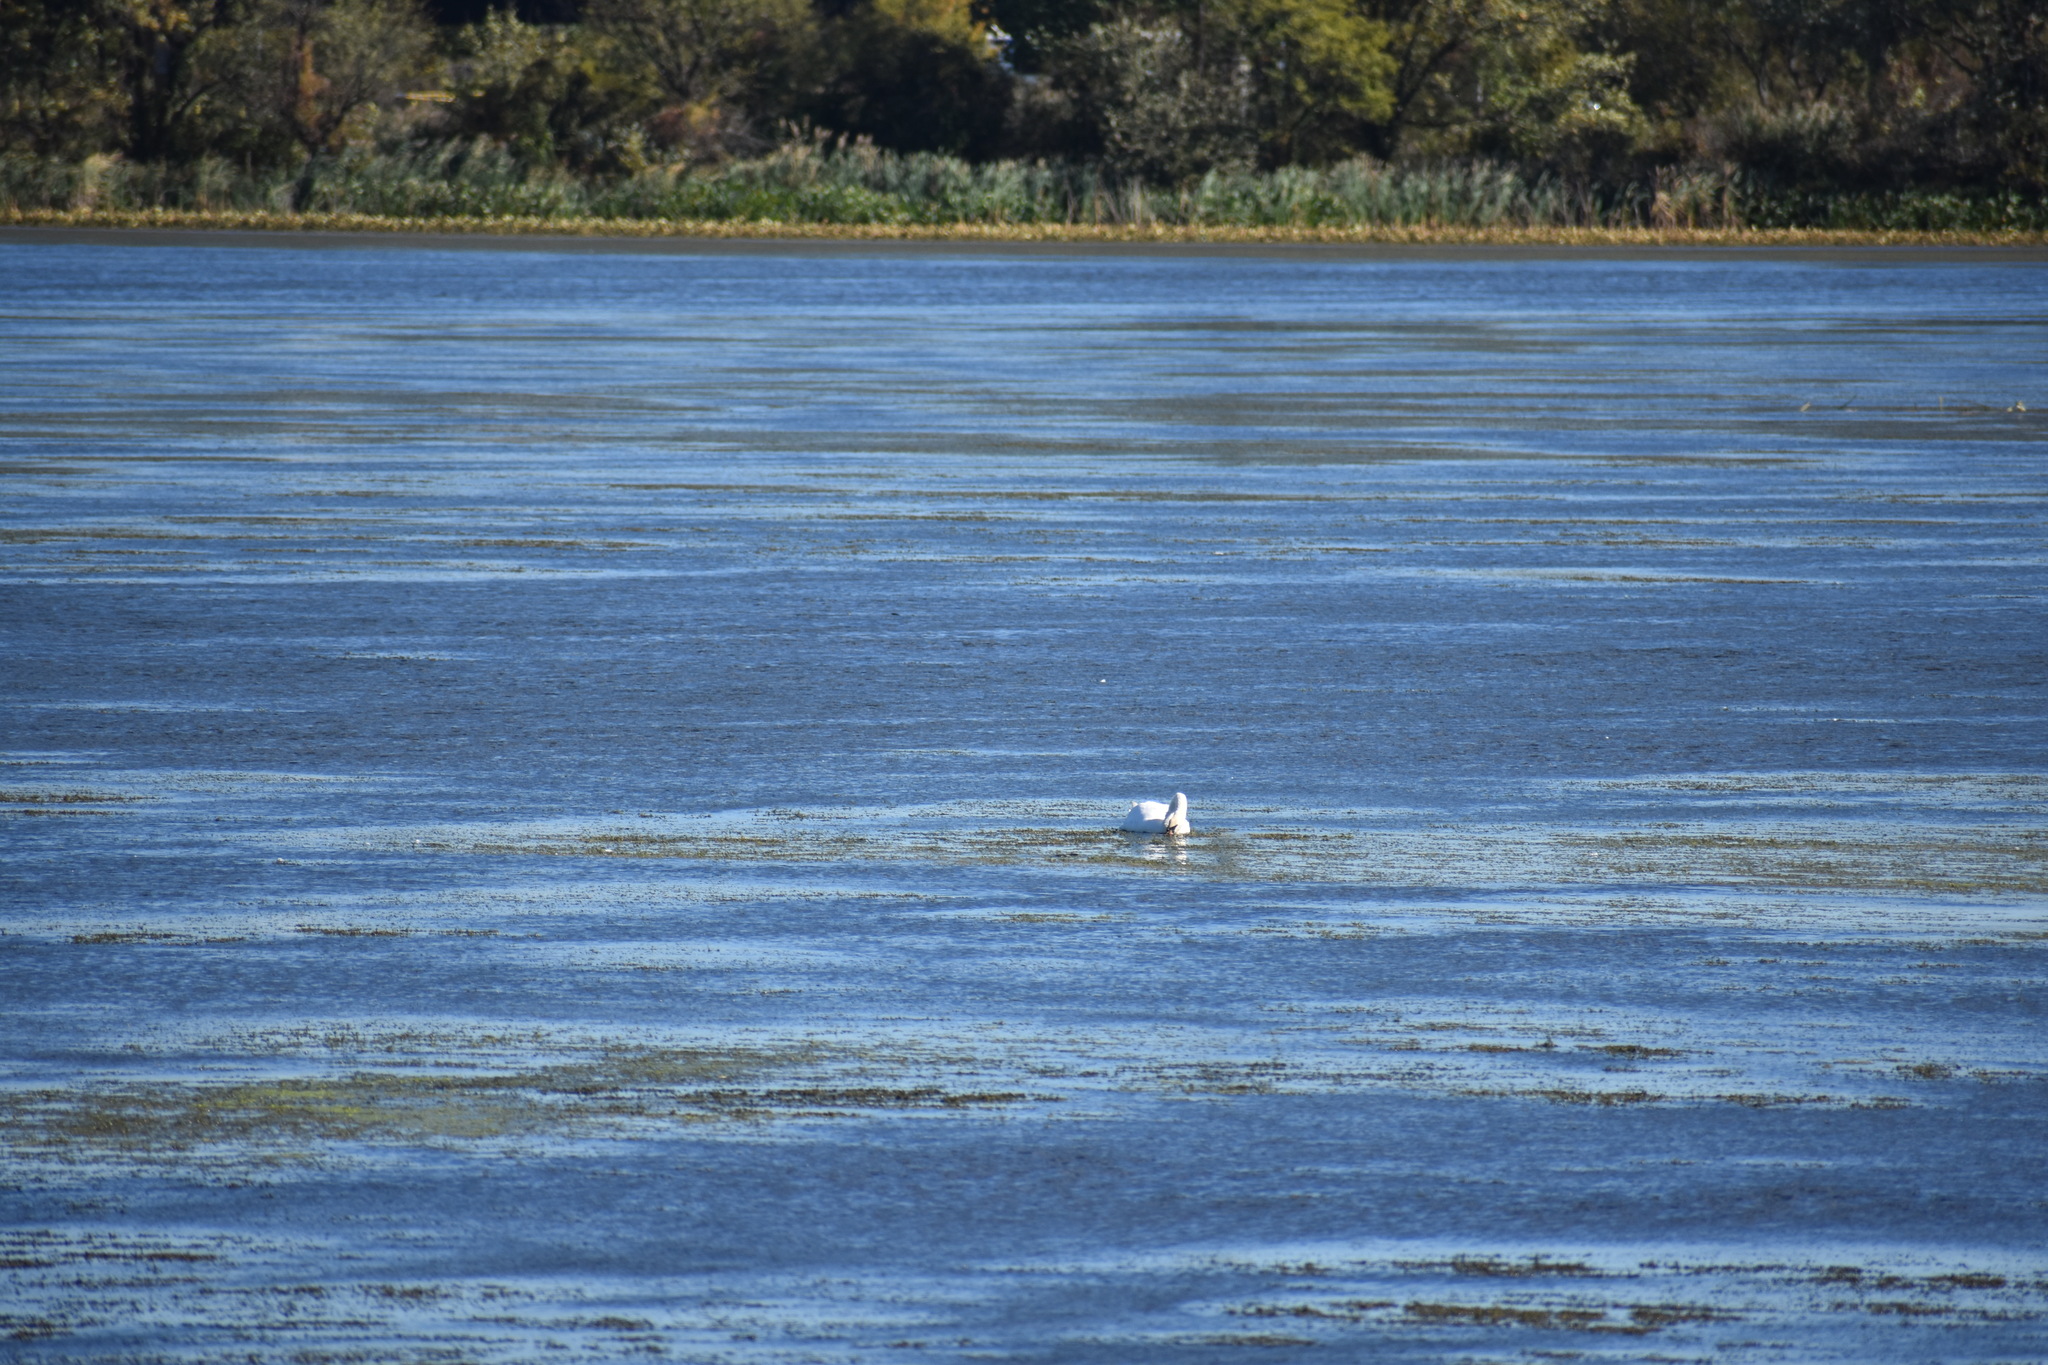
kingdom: Animalia
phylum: Chordata
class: Aves
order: Anseriformes
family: Anatidae
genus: Cygnus
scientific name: Cygnus olor
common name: Mute swan
